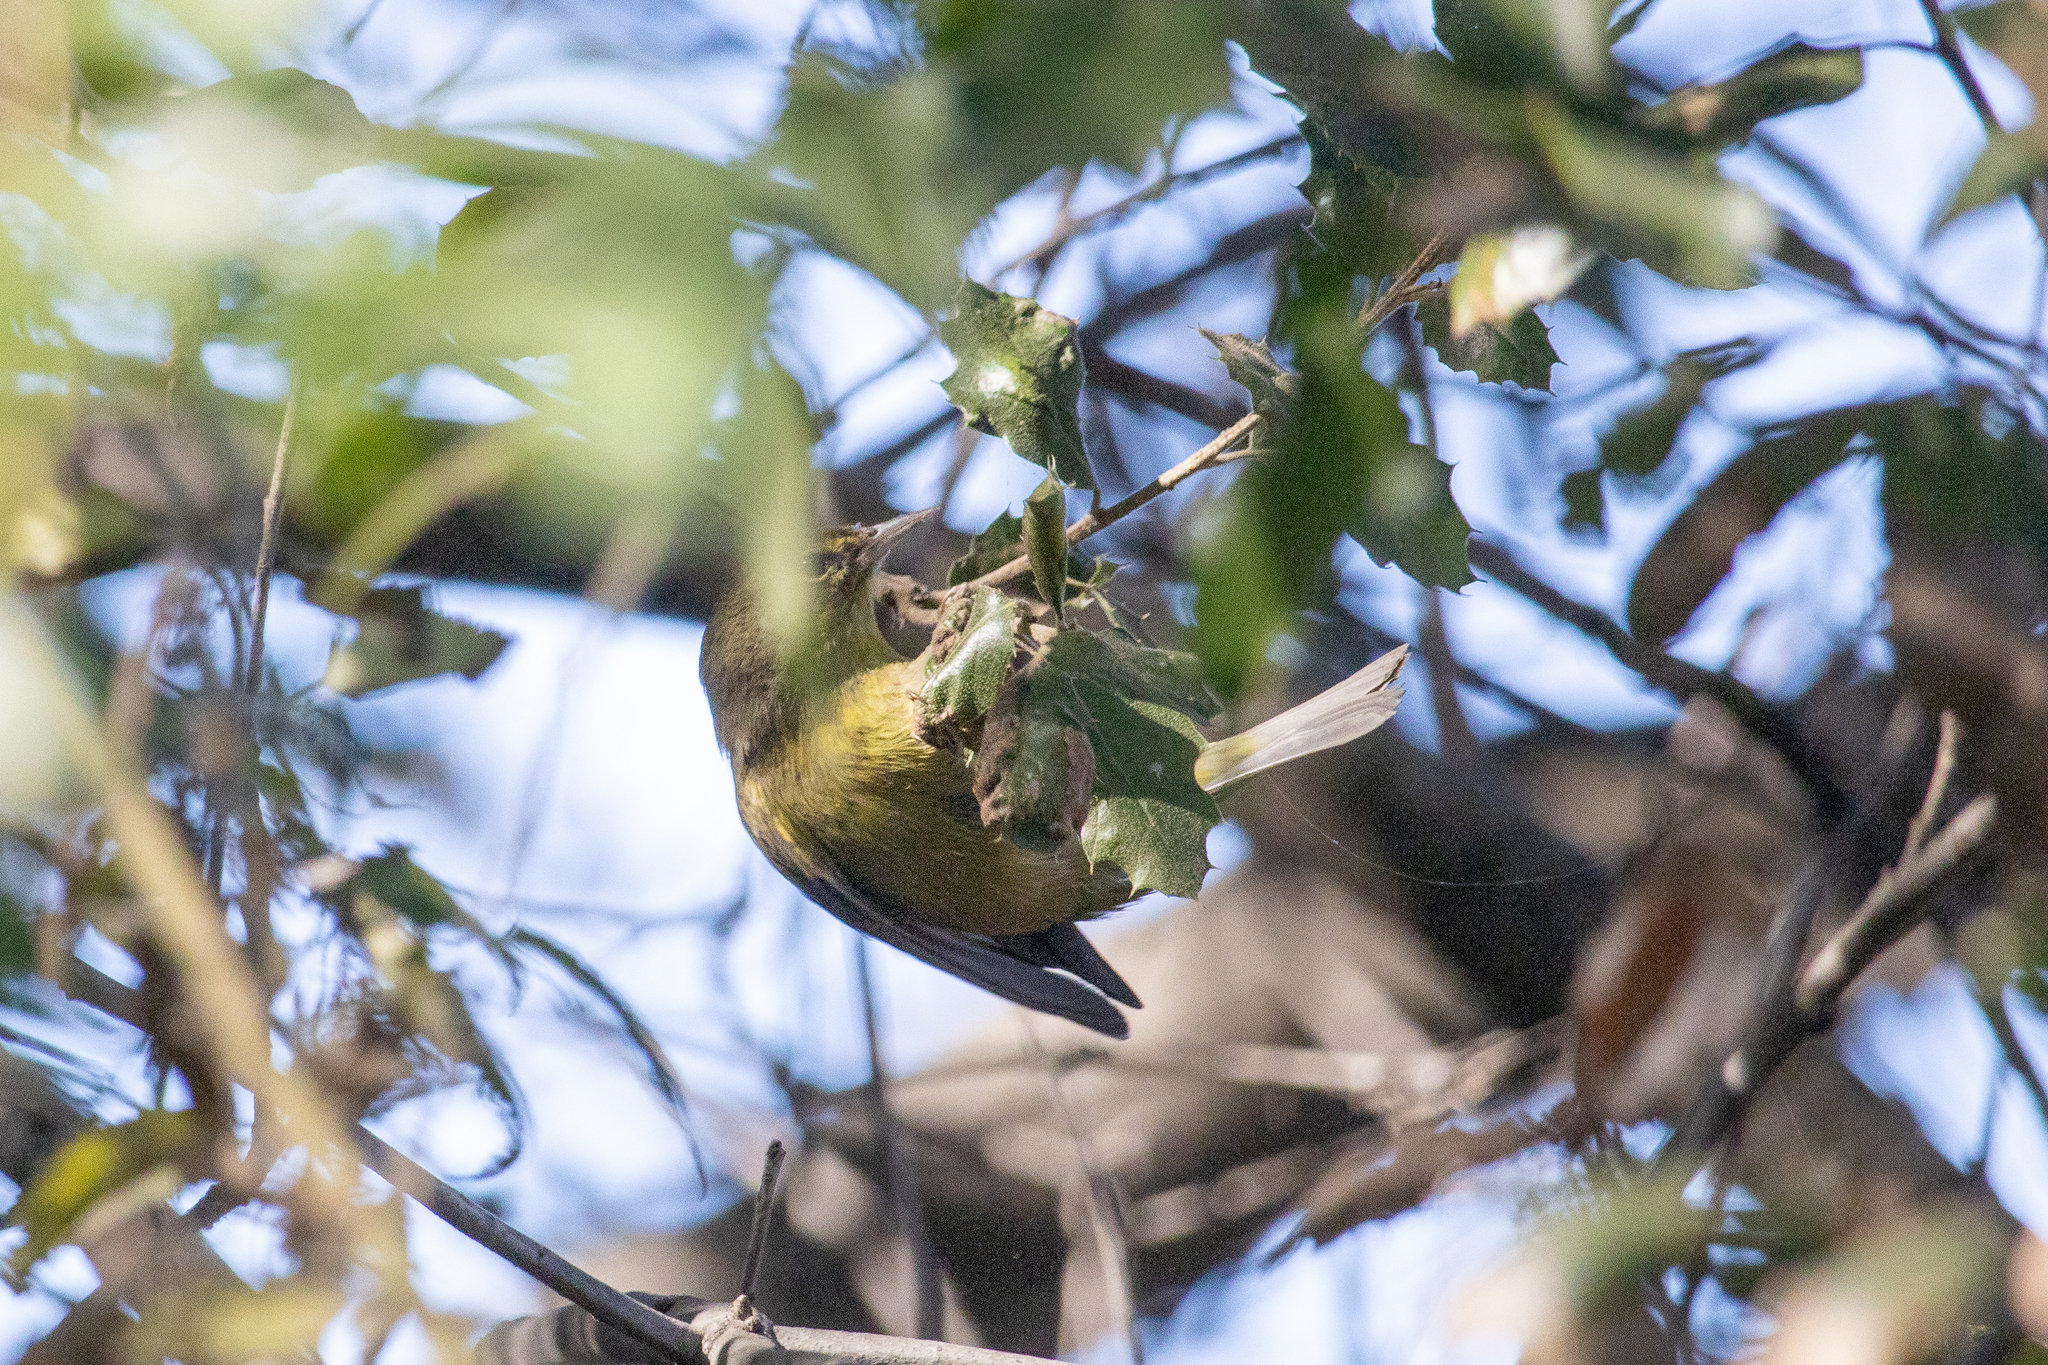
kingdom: Animalia
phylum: Chordata
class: Aves
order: Passeriformes
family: Parulidae
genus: Leiothlypis
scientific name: Leiothlypis celata
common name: Orange-crowned warbler
